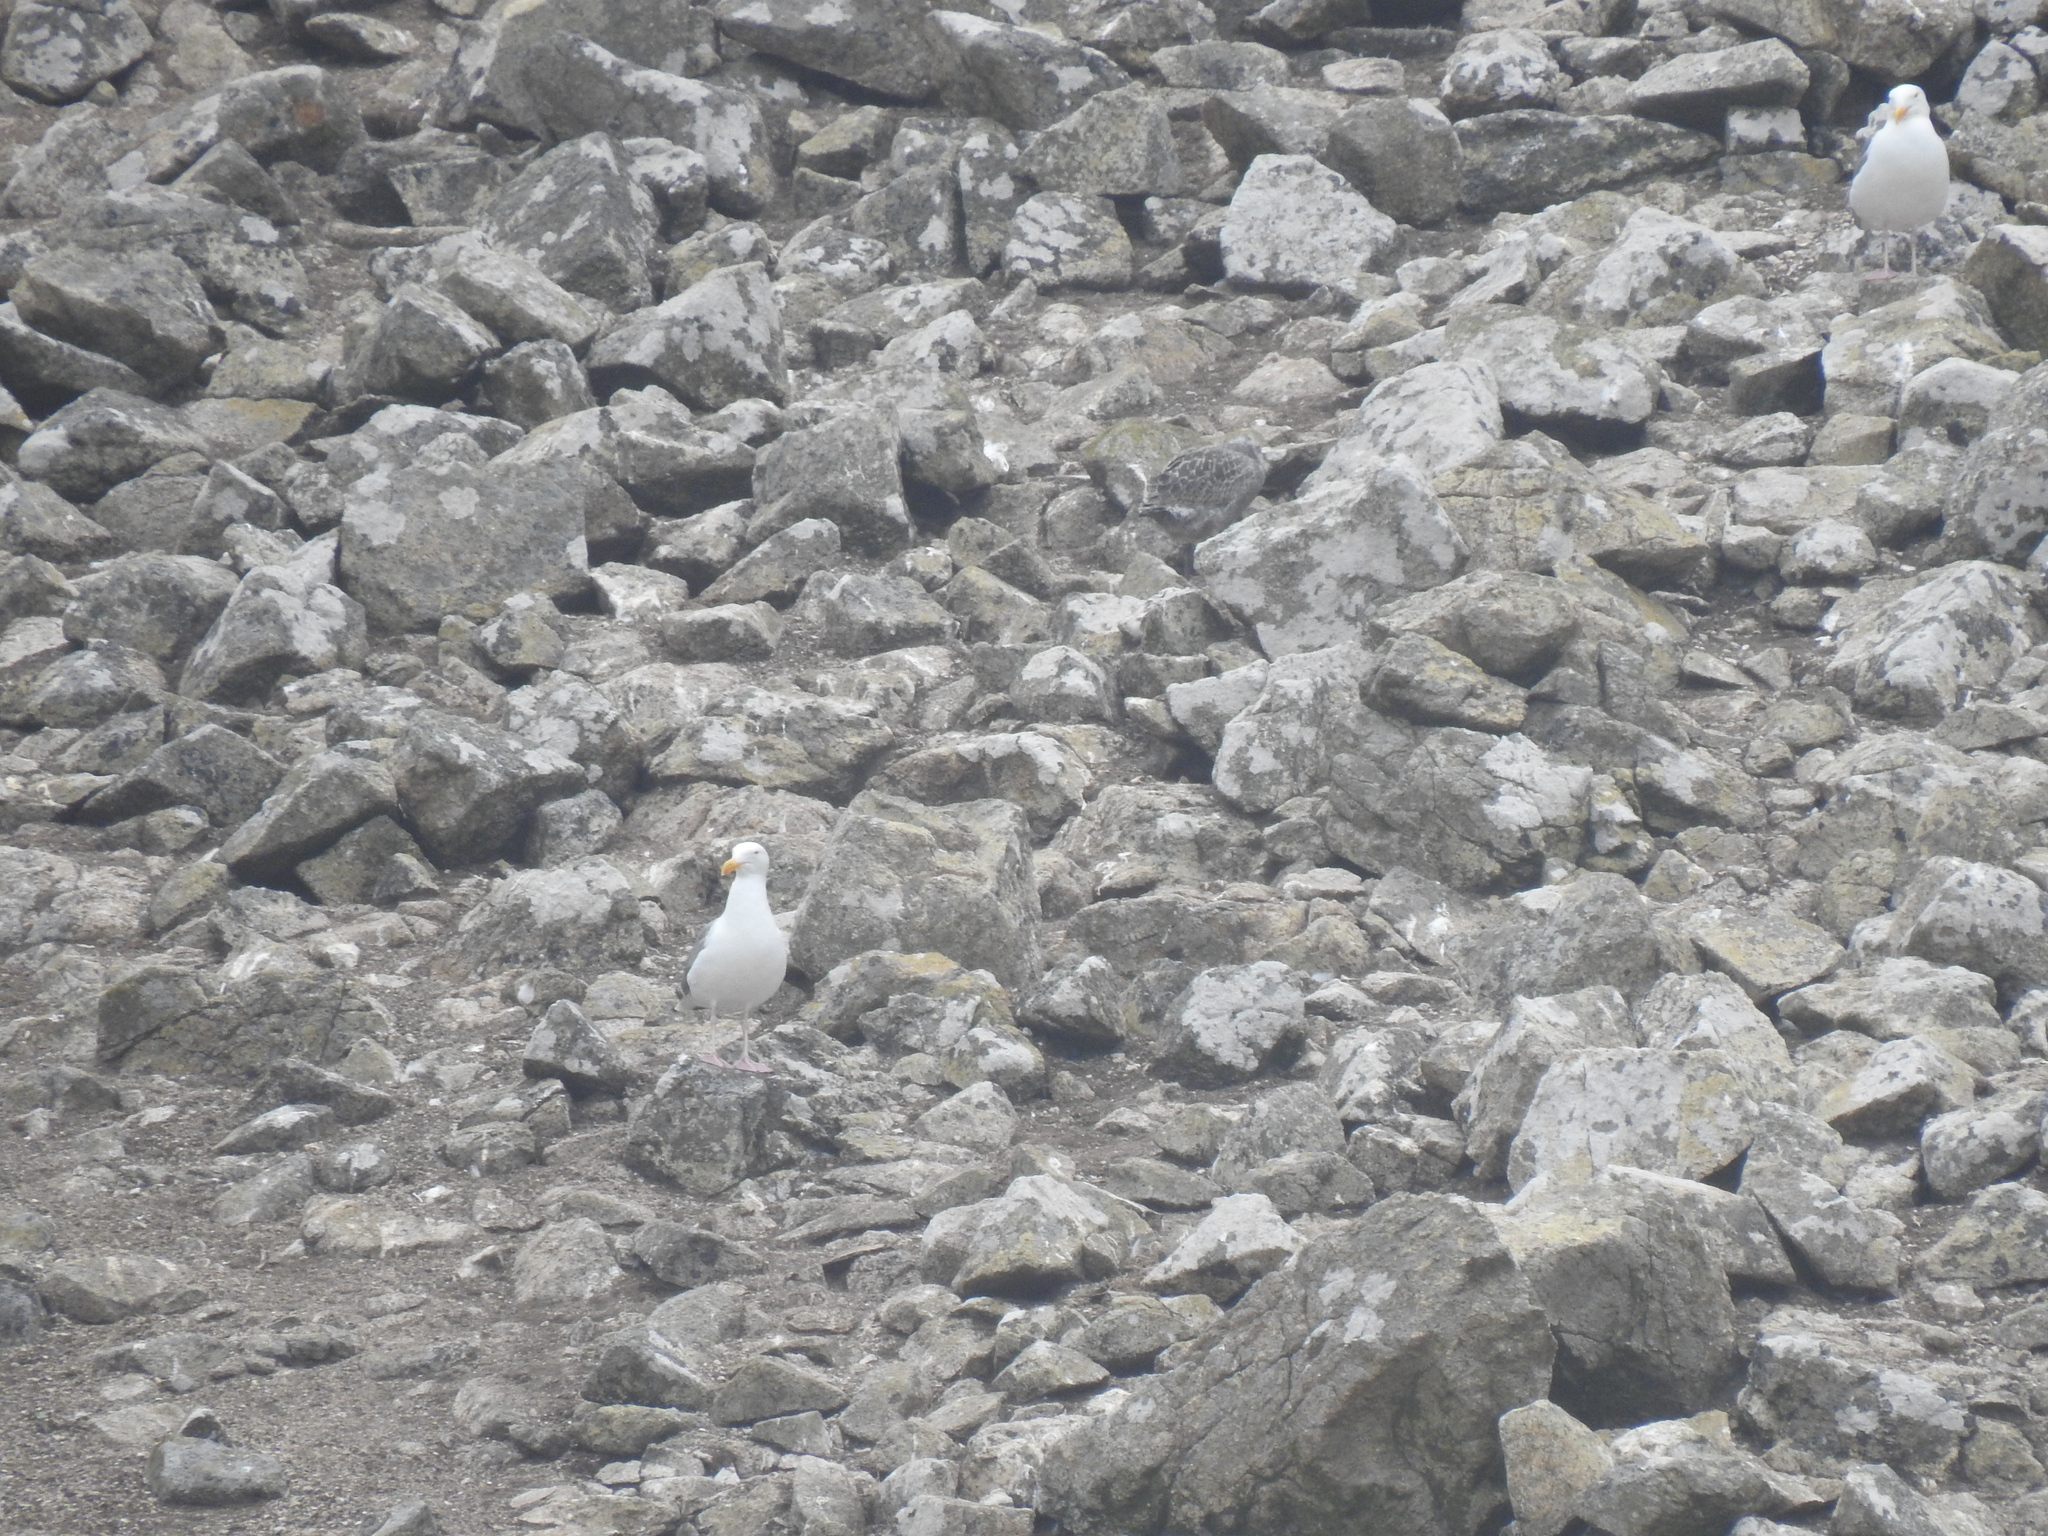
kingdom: Animalia
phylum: Chordata
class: Aves
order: Charadriiformes
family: Laridae
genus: Larus
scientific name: Larus occidentalis
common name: Western gull
